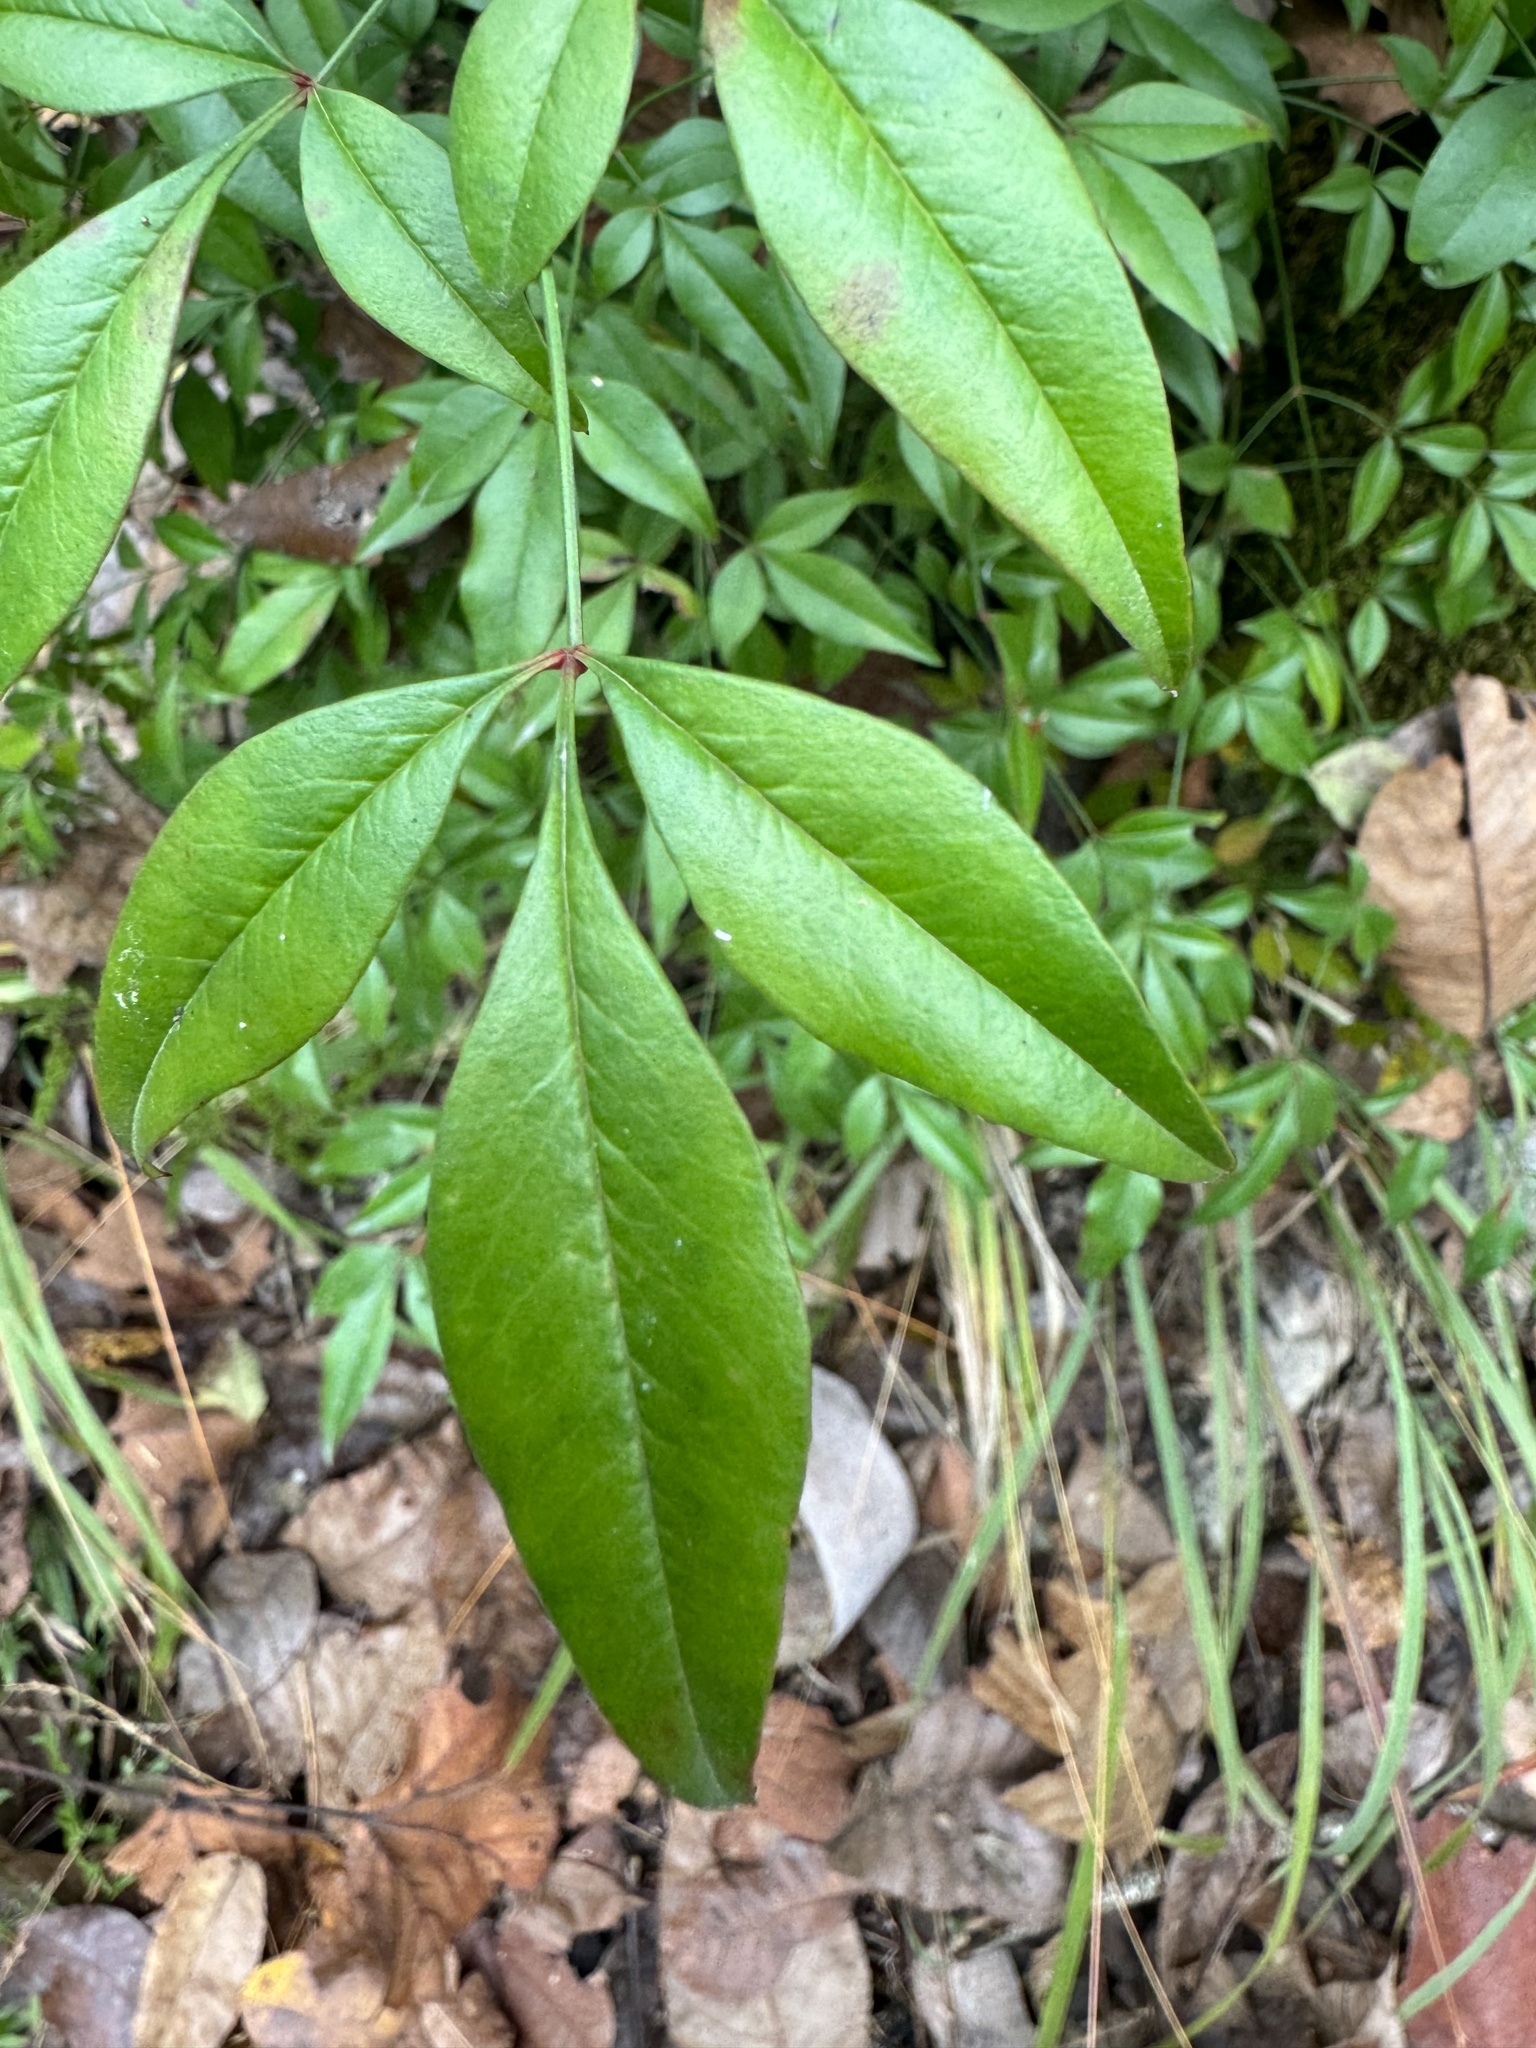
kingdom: Plantae
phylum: Tracheophyta
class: Magnoliopsida
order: Ranunculales
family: Berberidaceae
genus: Nandina
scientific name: Nandina domestica
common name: Sacred bamboo
